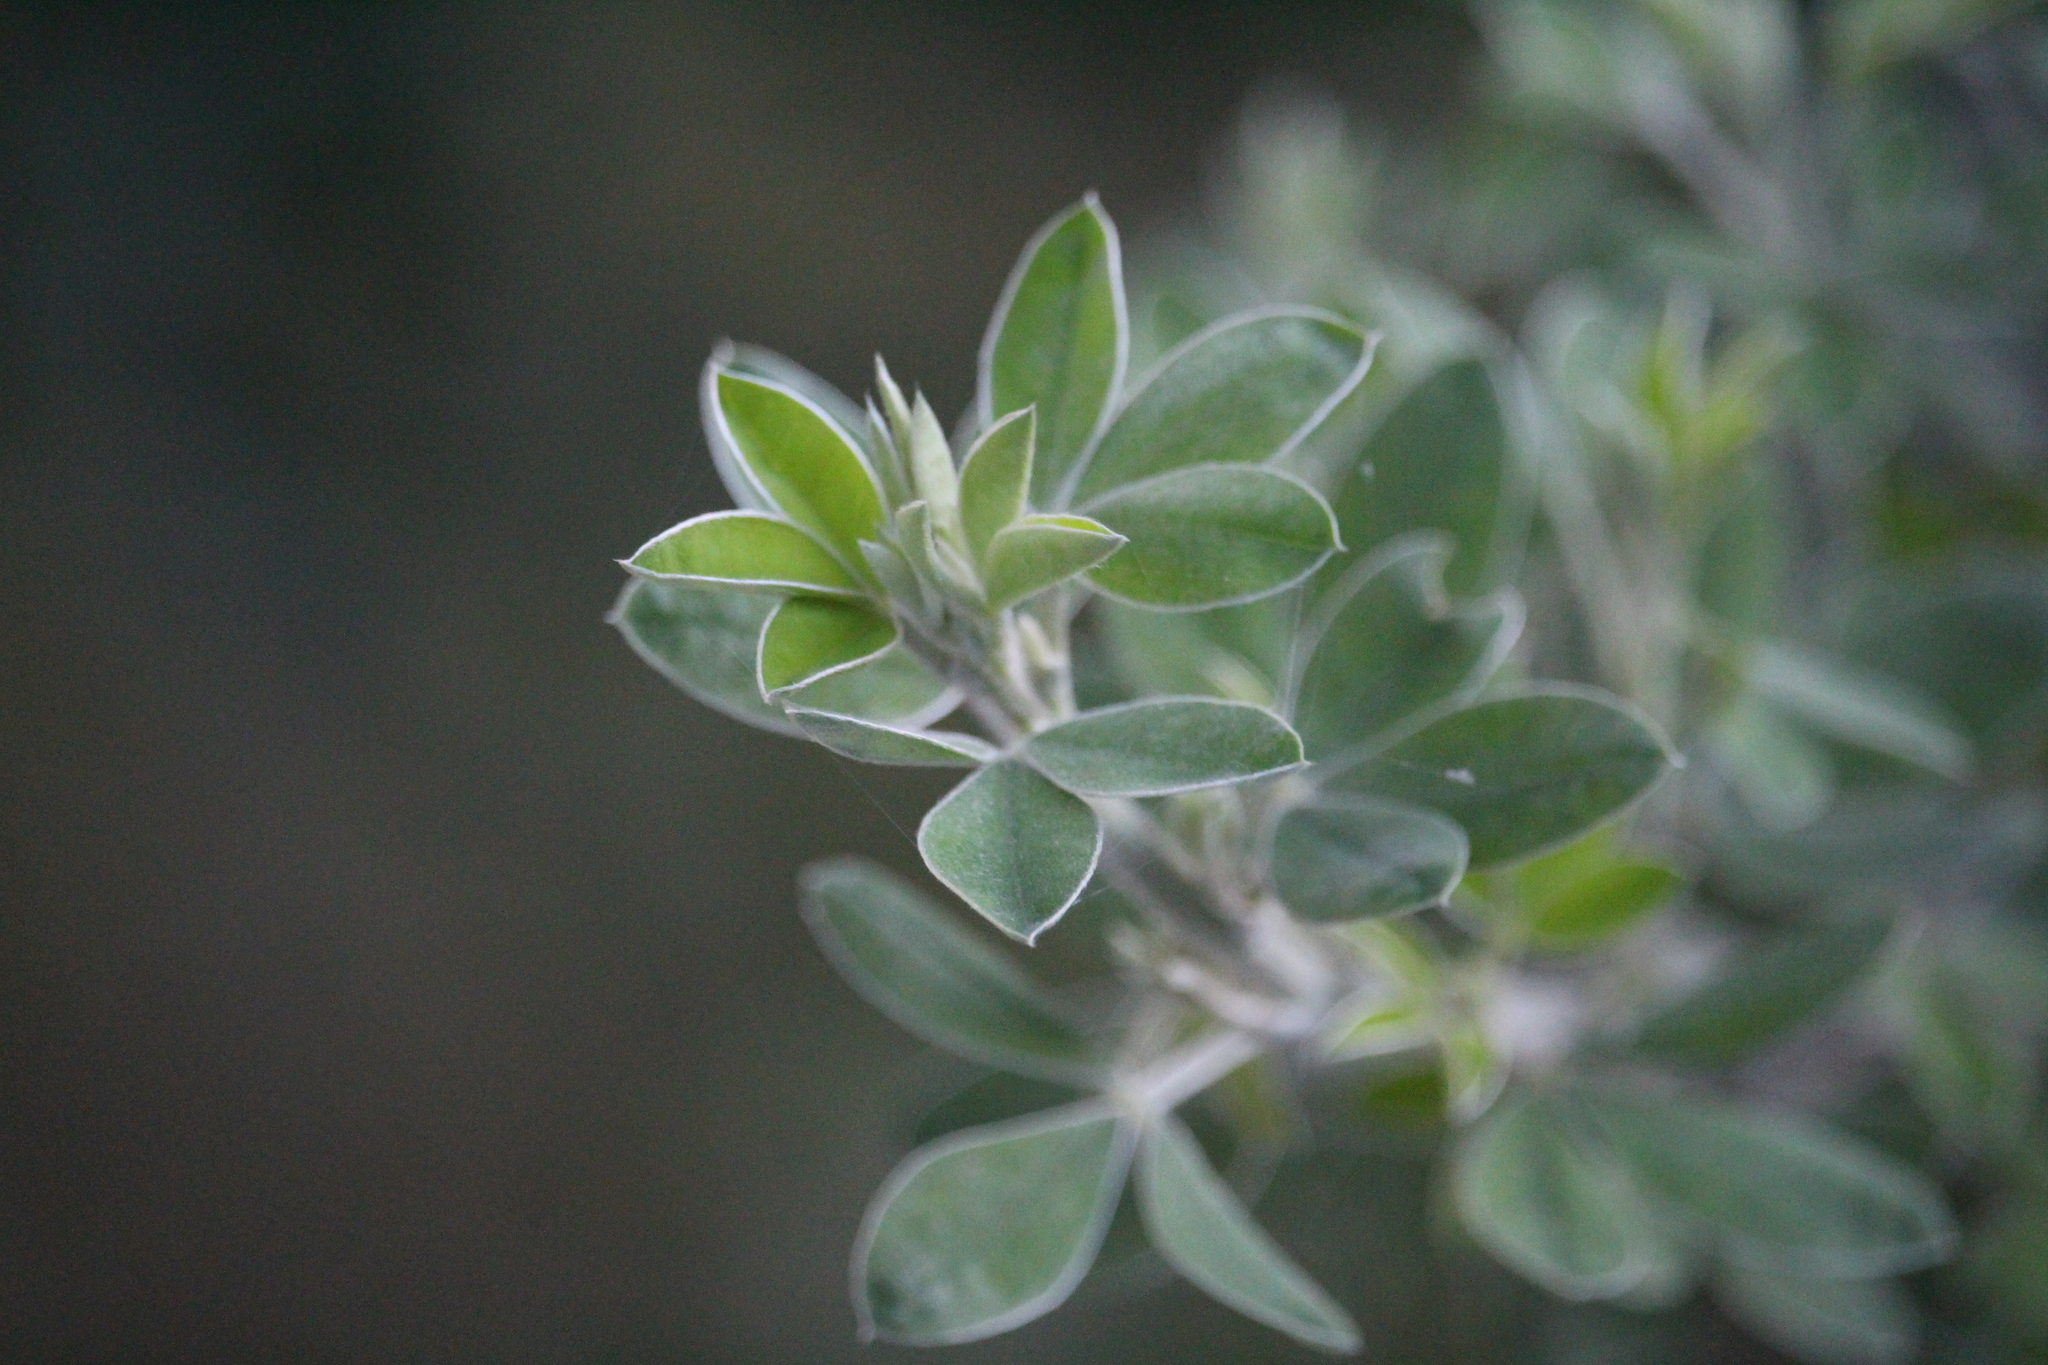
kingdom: Plantae
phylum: Tracheophyta
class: Magnoliopsida
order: Fabales
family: Fabaceae
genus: Chamaecytisus
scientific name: Chamaecytisus prolifer
